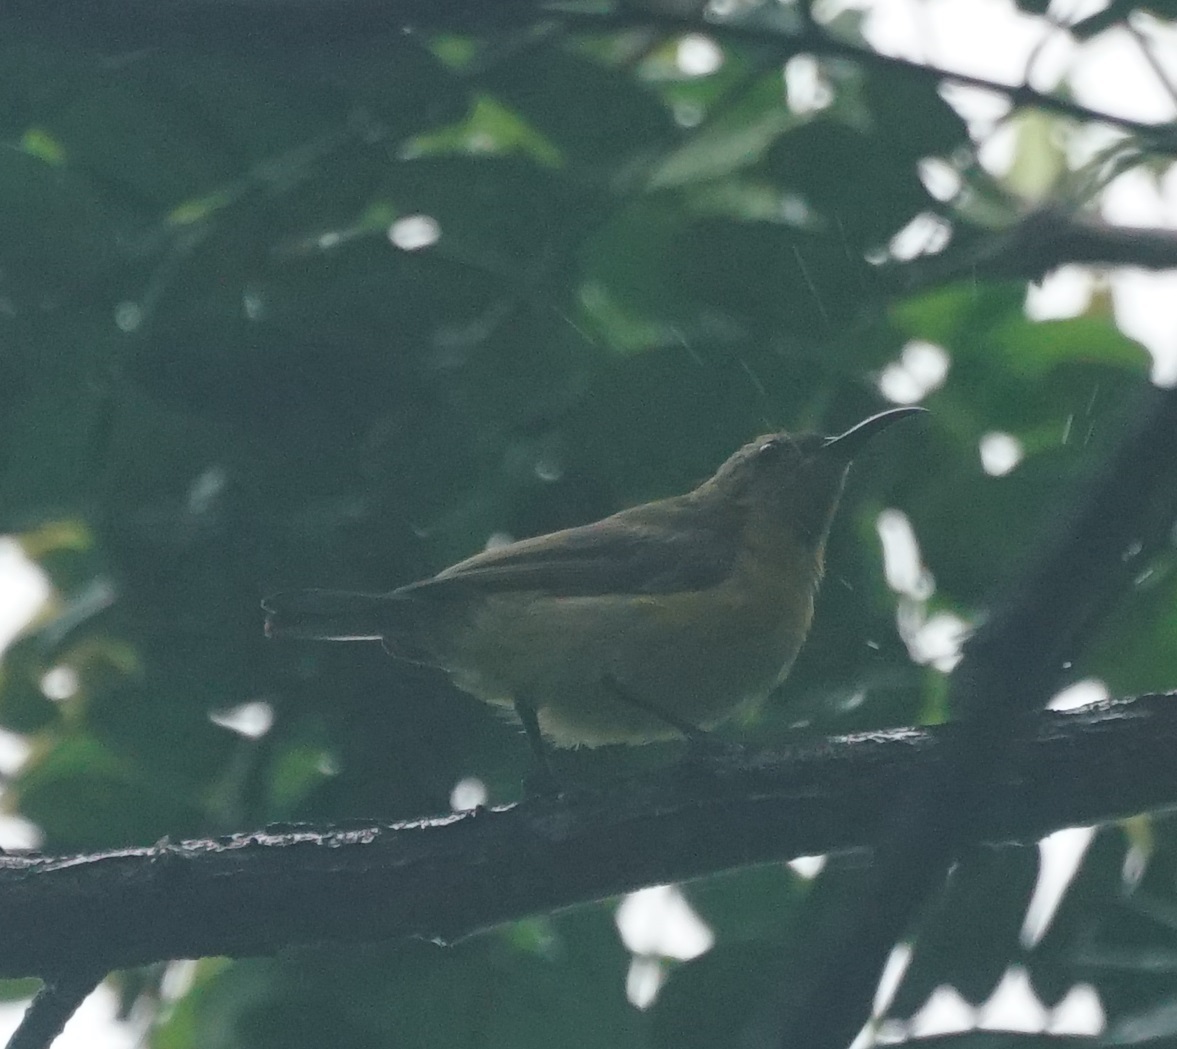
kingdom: Animalia
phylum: Chordata
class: Aves
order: Passeriformes
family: Nectariniidae
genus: Cinnyris
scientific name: Cinnyris
